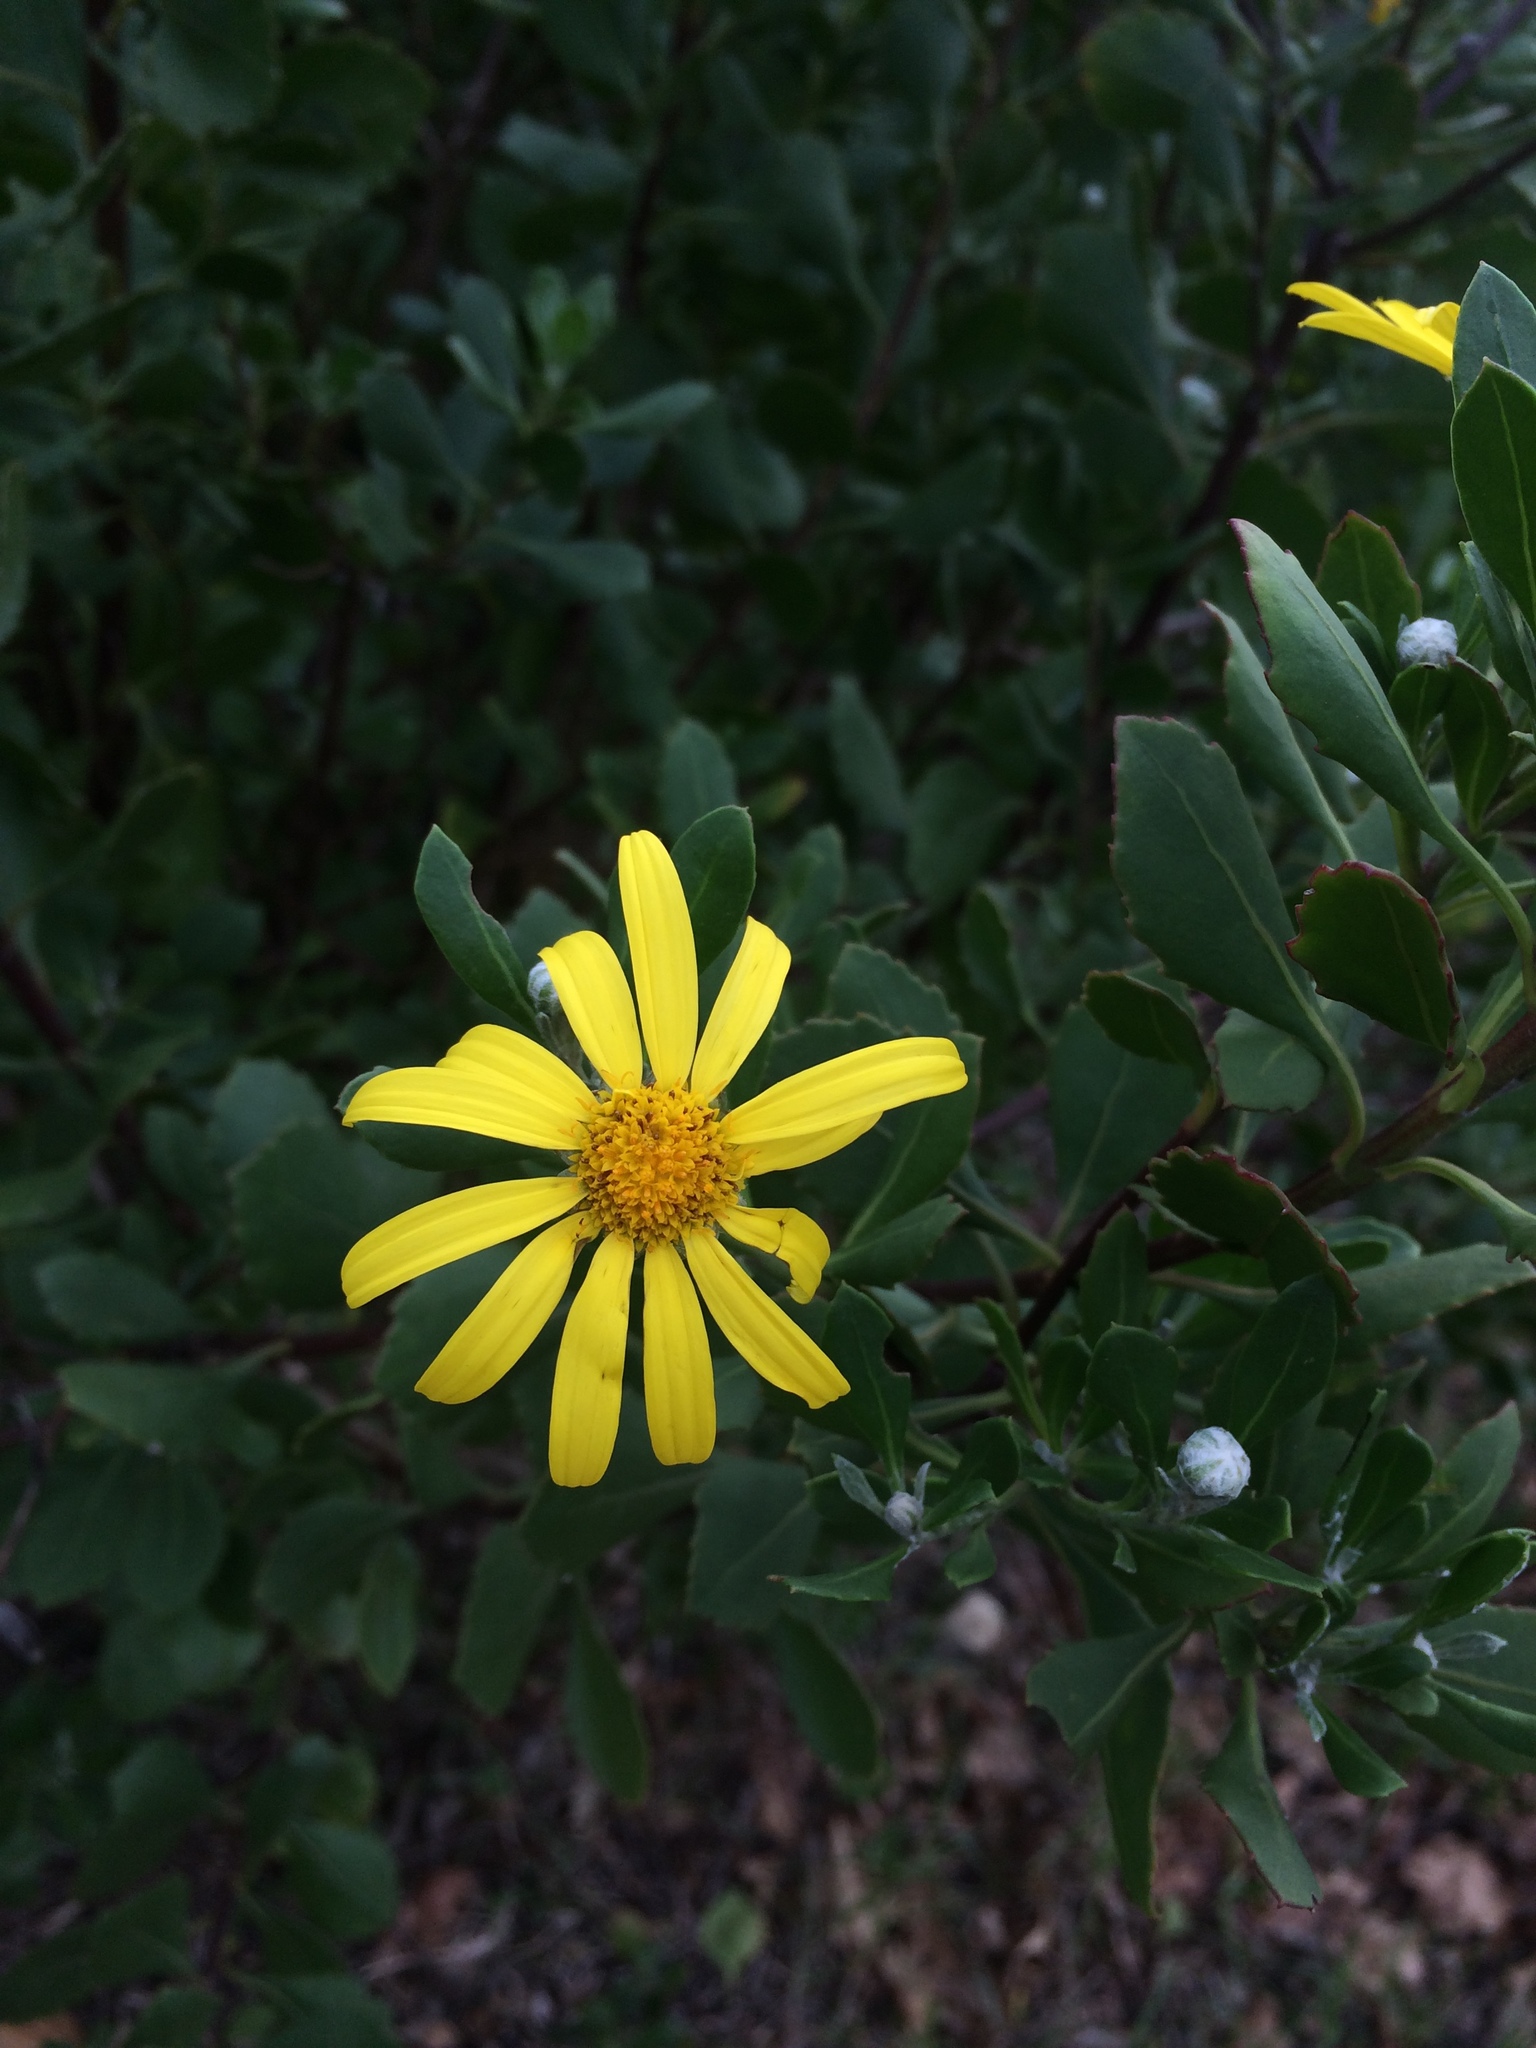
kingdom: Plantae
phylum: Tracheophyta
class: Magnoliopsida
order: Asterales
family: Asteraceae
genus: Osteospermum
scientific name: Osteospermum moniliferum
